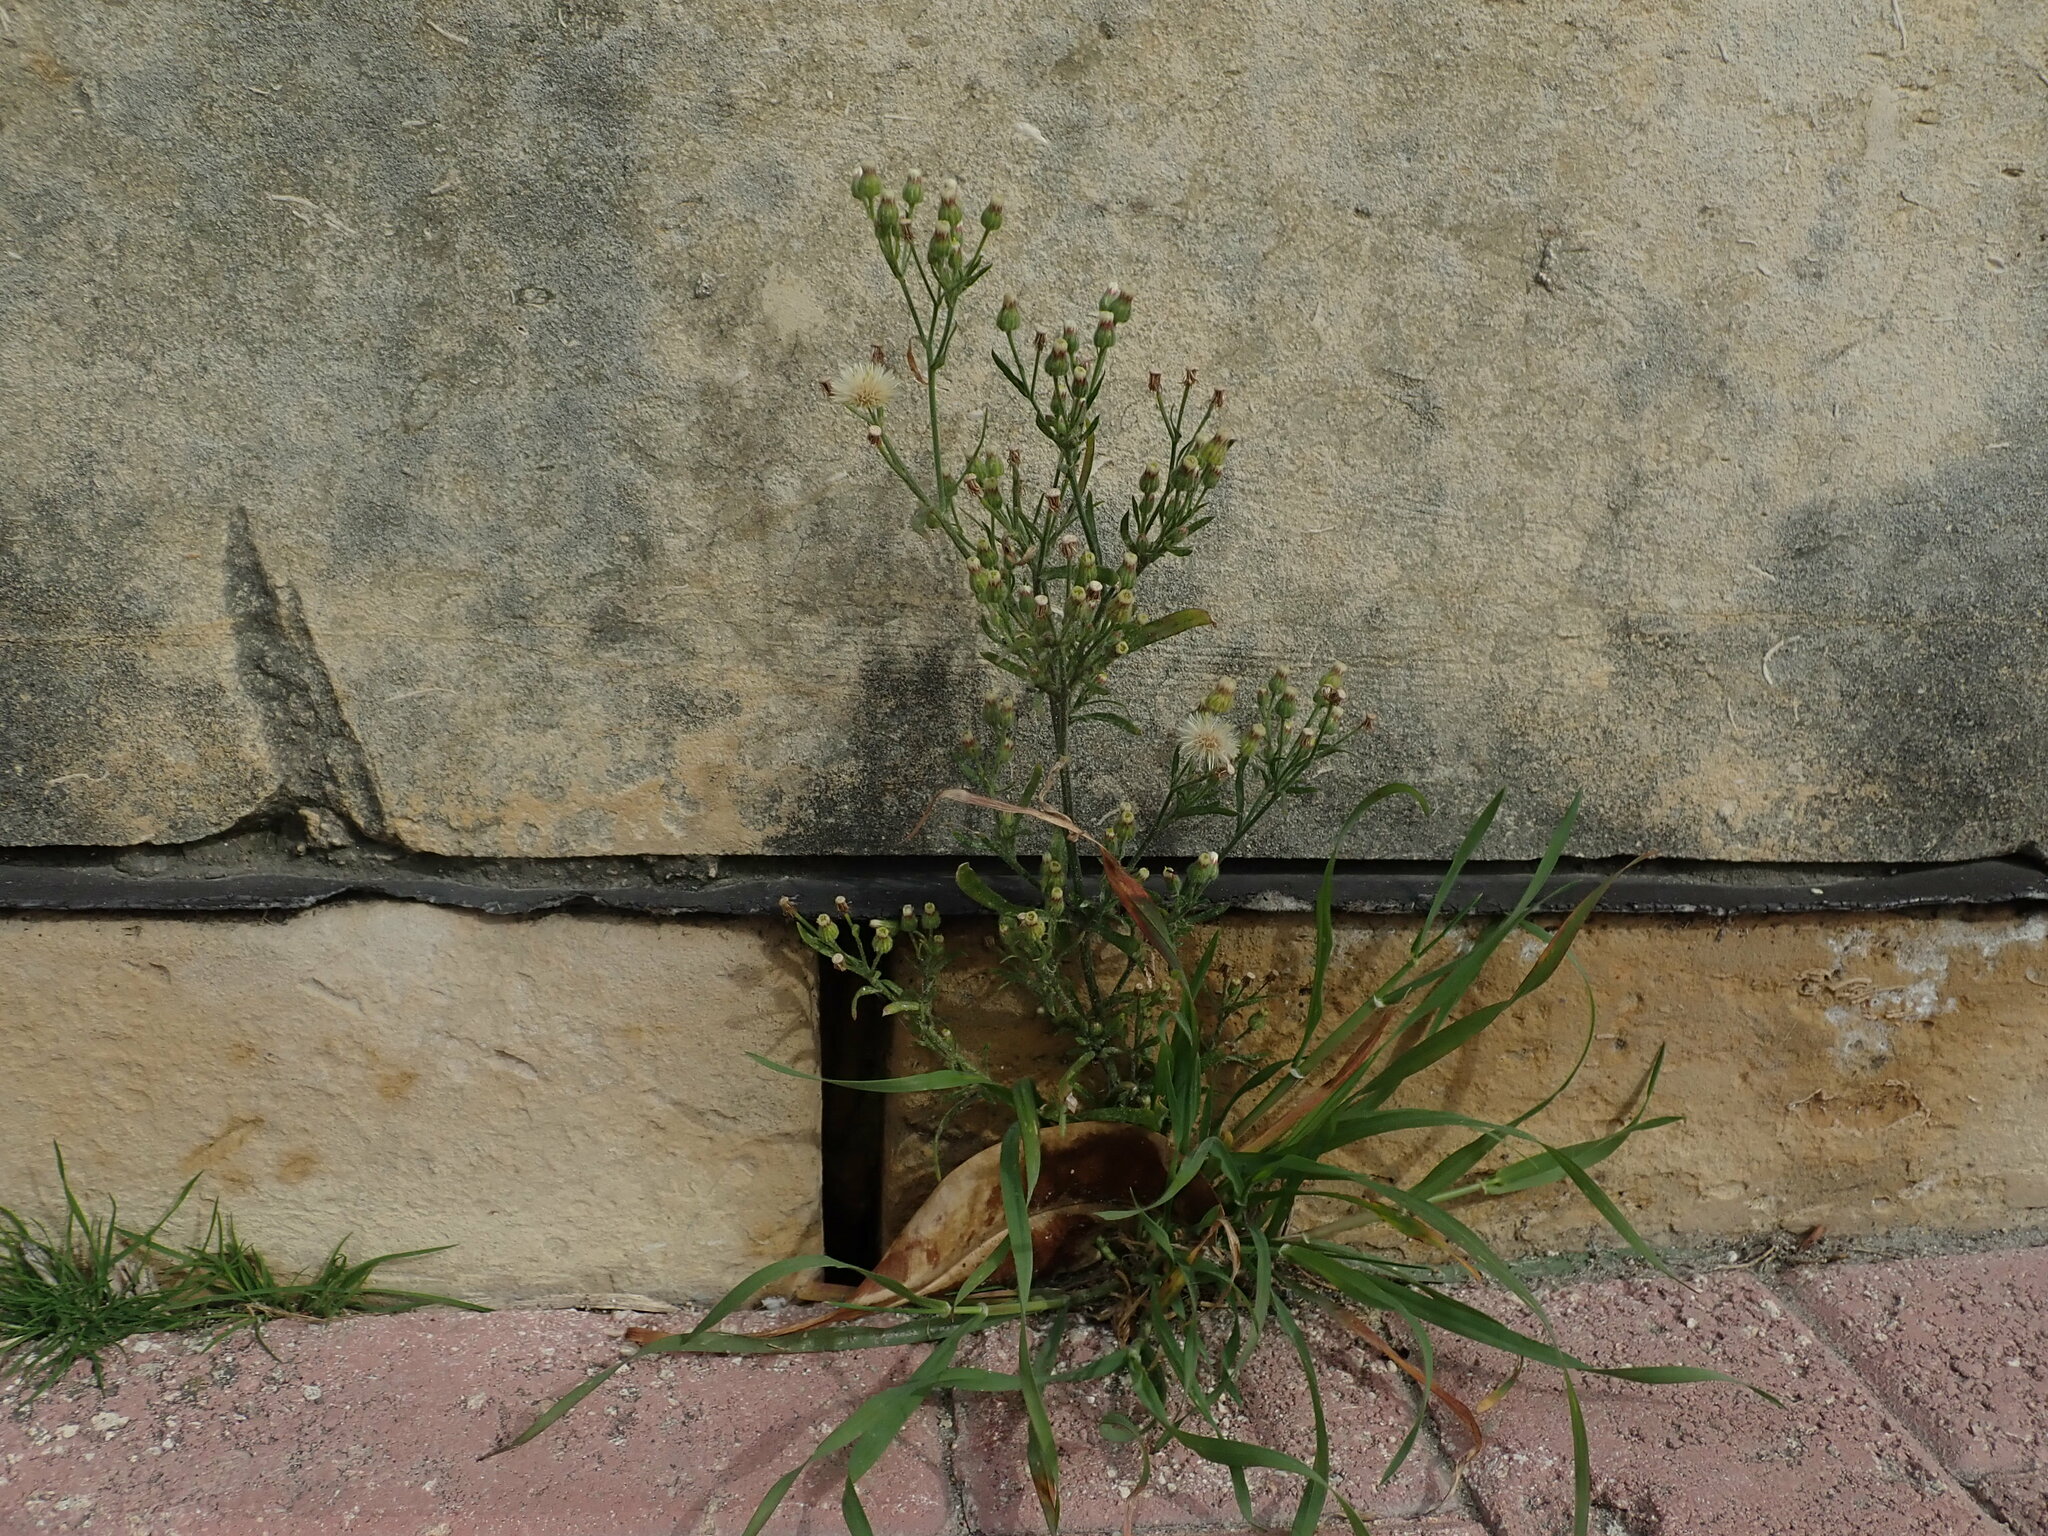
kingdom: Plantae
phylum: Tracheophyta
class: Magnoliopsida
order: Asterales
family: Asteraceae
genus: Erigeron
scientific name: Erigeron bonariensis
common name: Argentine fleabane
